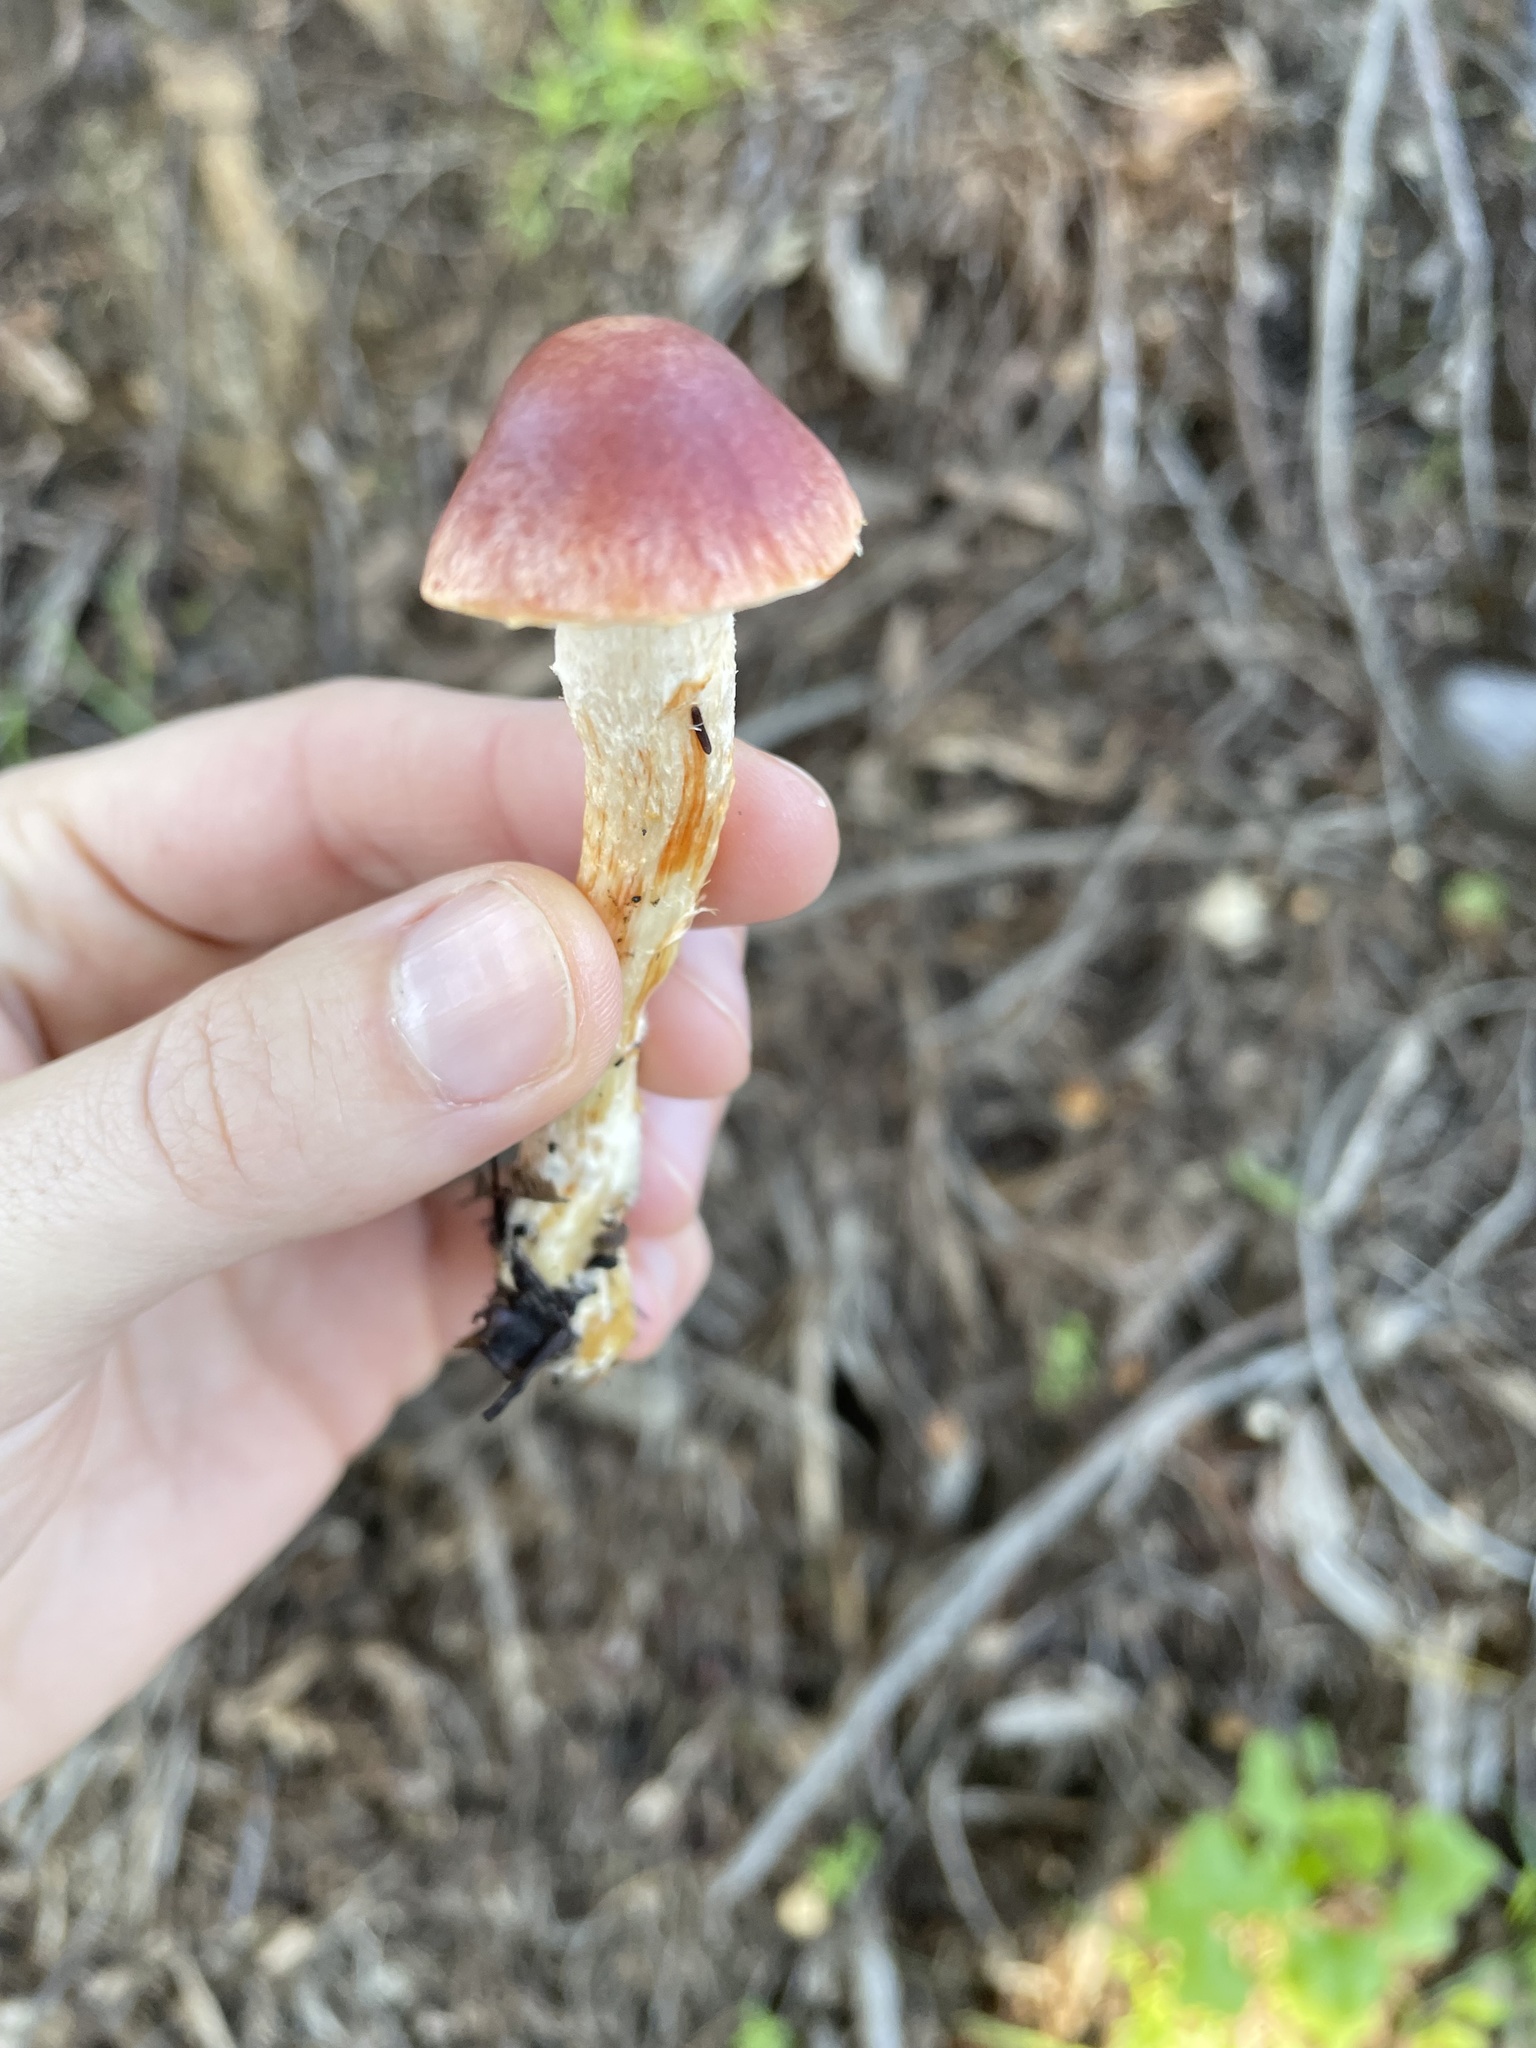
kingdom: Fungi
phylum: Basidiomycota
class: Agaricomycetes
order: Agaricales
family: Strophariaceae
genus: Leratiomyces
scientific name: Leratiomyces ceres
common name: Redlead roundhead
